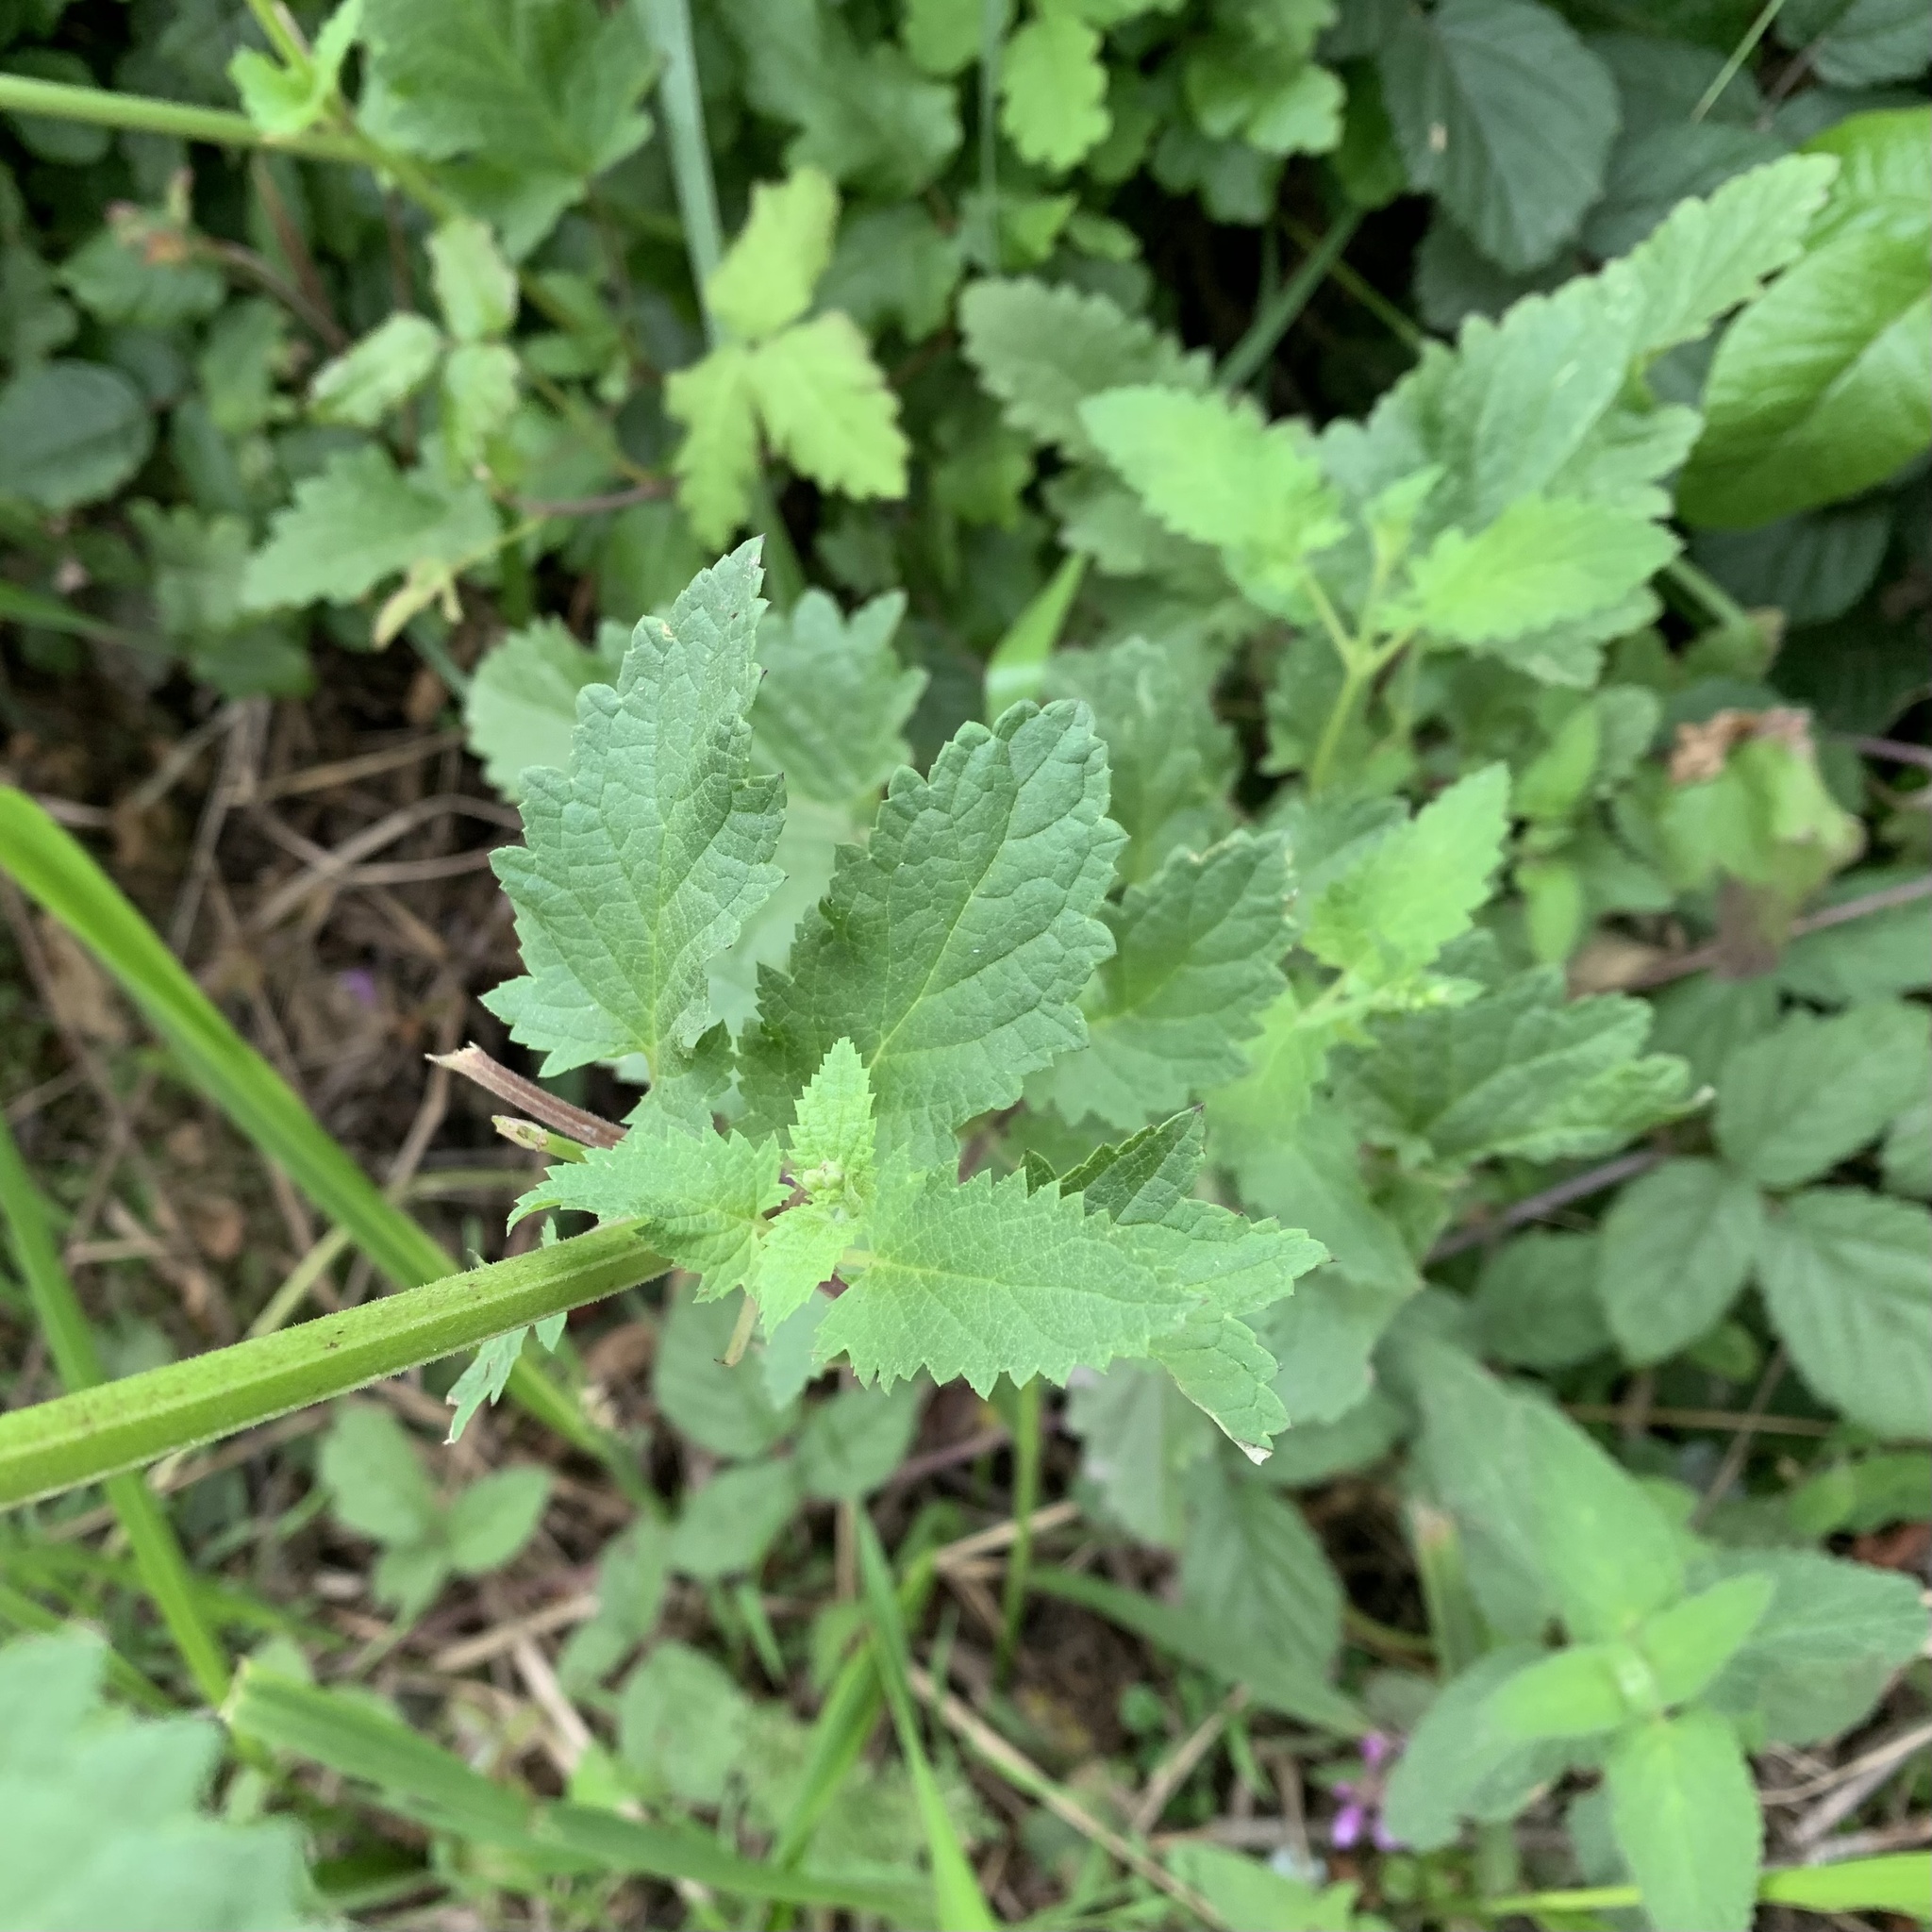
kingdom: Plantae
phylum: Tracheophyta
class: Magnoliopsida
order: Lamiales
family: Scrophulariaceae
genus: Scrophularia
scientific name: Scrophularia californica
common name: California figwort
